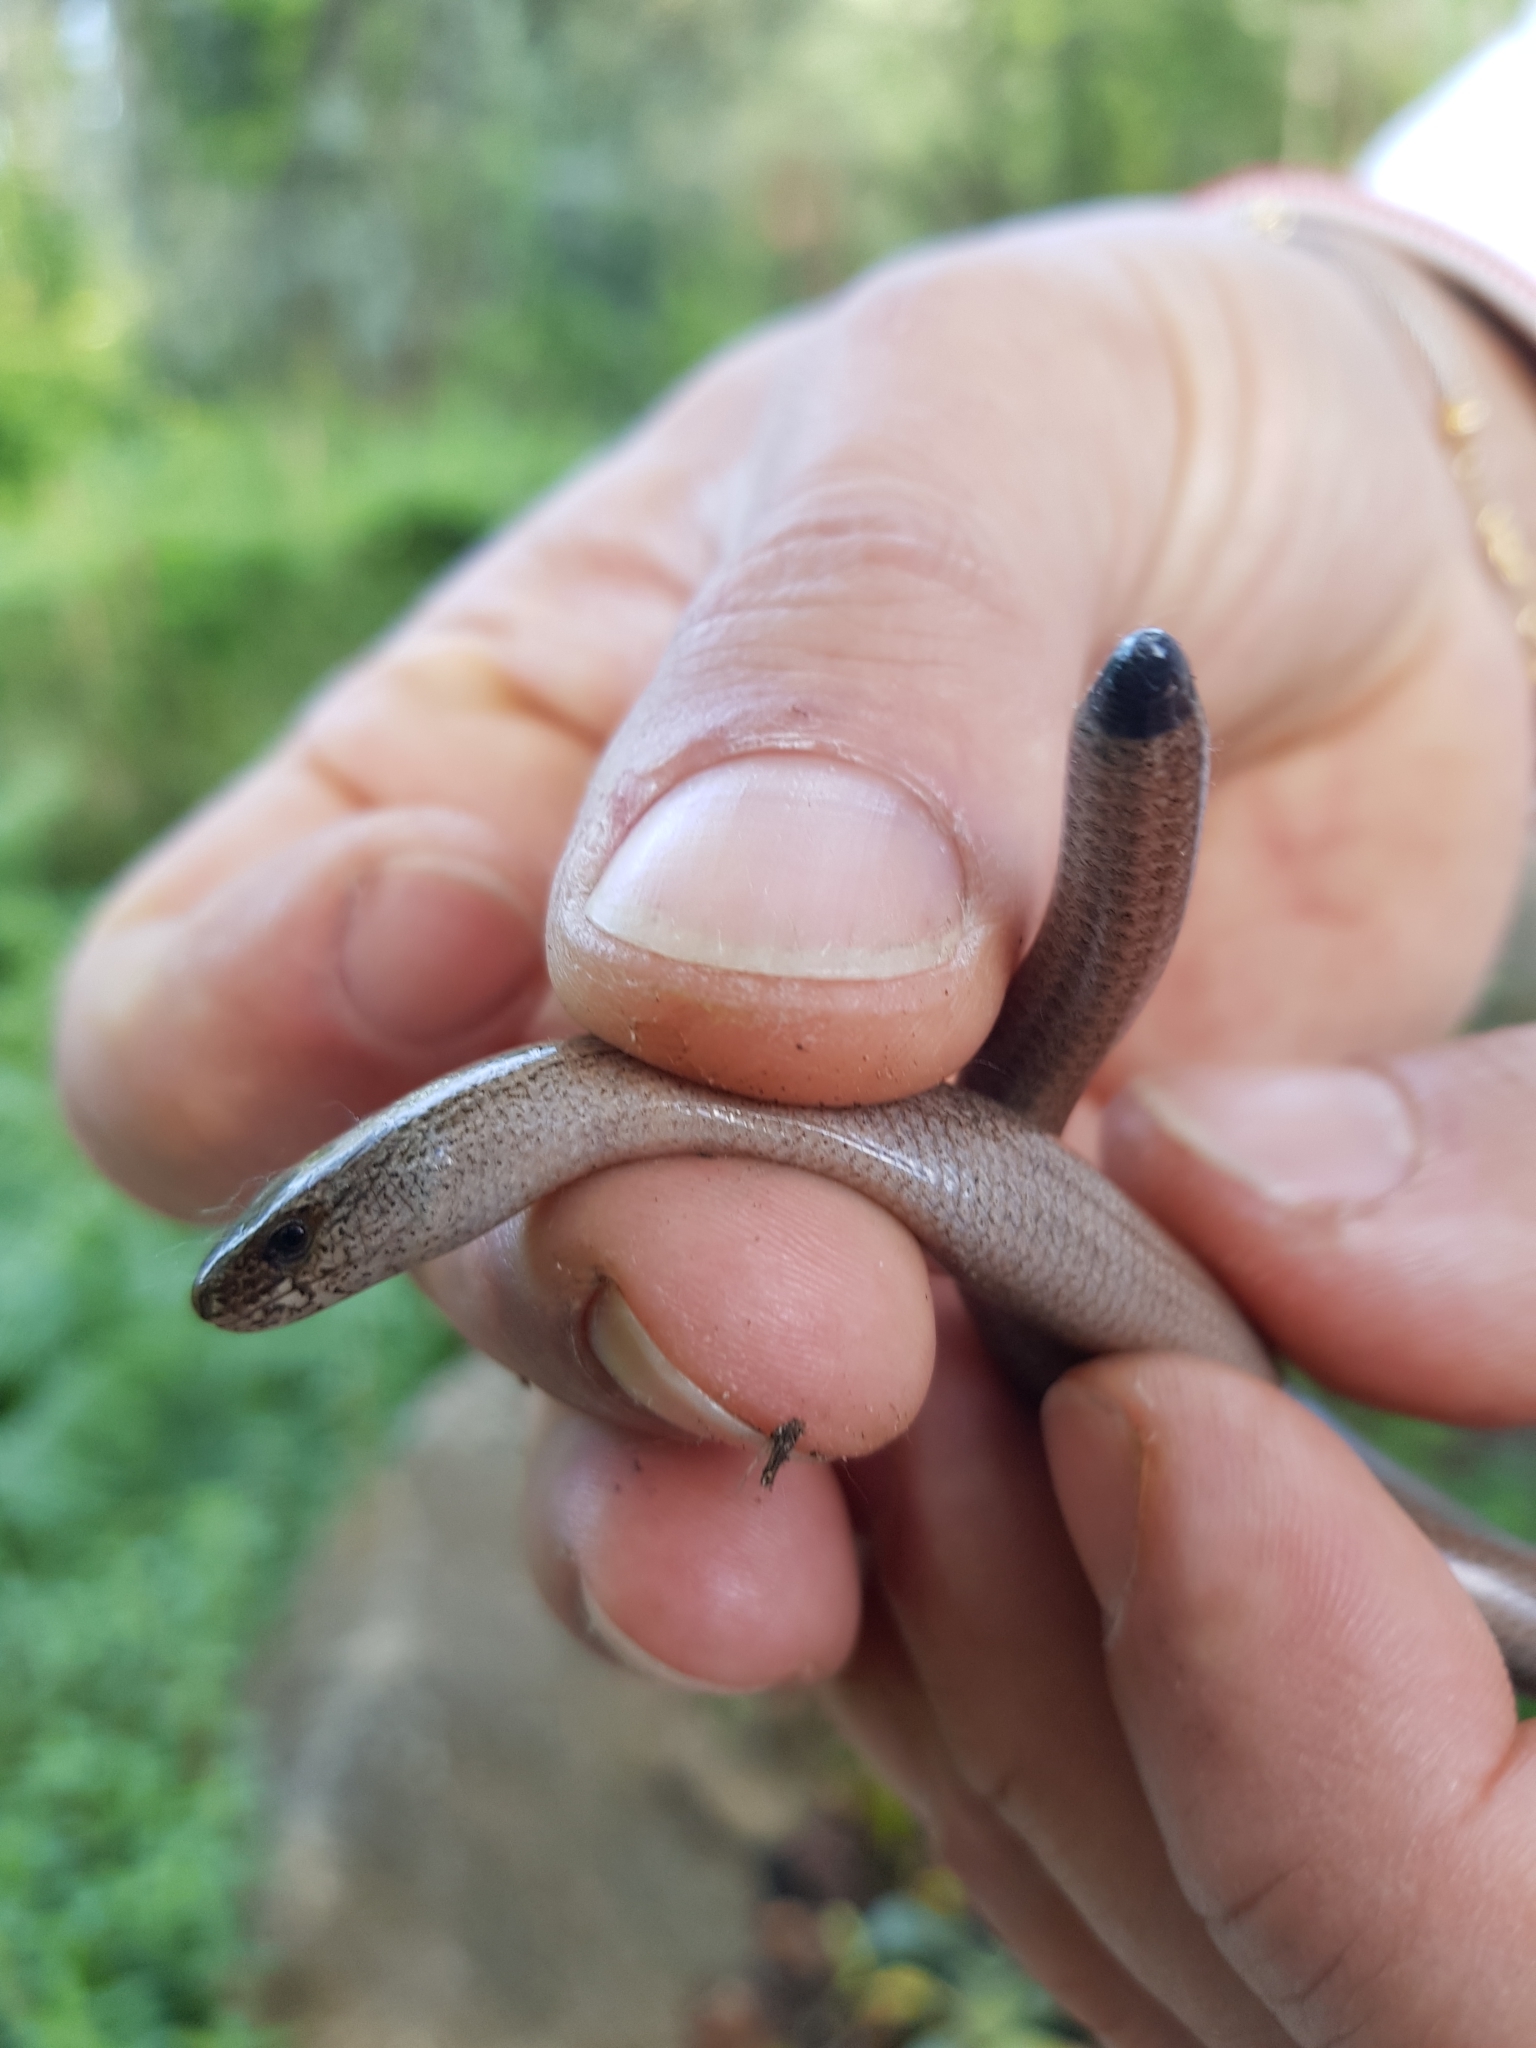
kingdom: Animalia
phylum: Chordata
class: Squamata
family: Anguidae
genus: Anguis
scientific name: Anguis veronensis
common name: Italian slow worm
